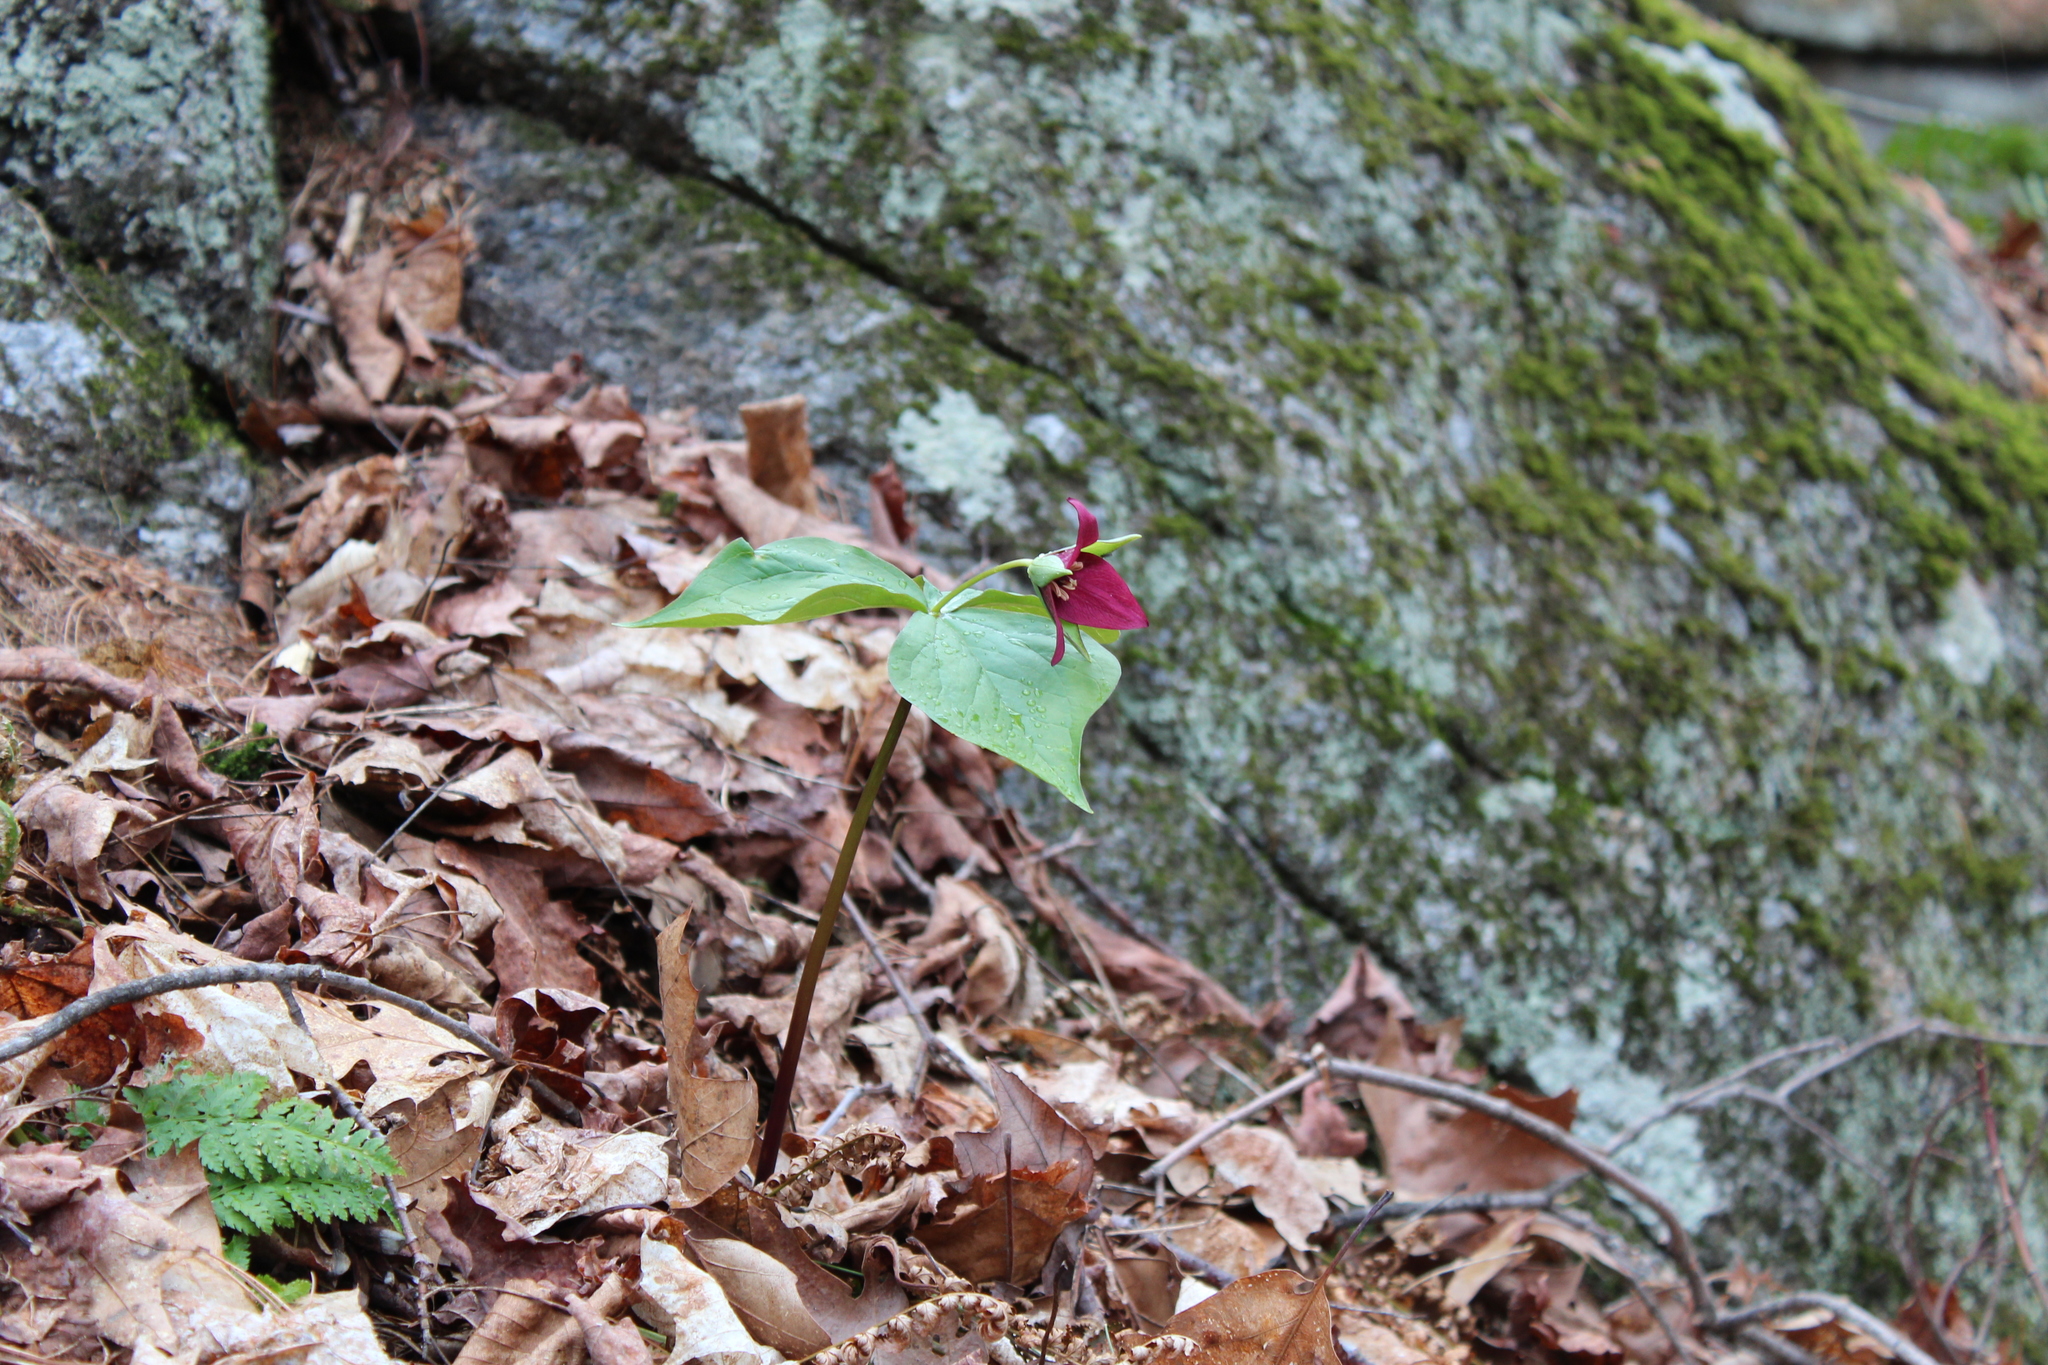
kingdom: Plantae
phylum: Tracheophyta
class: Liliopsida
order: Liliales
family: Melanthiaceae
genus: Trillium
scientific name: Trillium erectum
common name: Purple trillium
